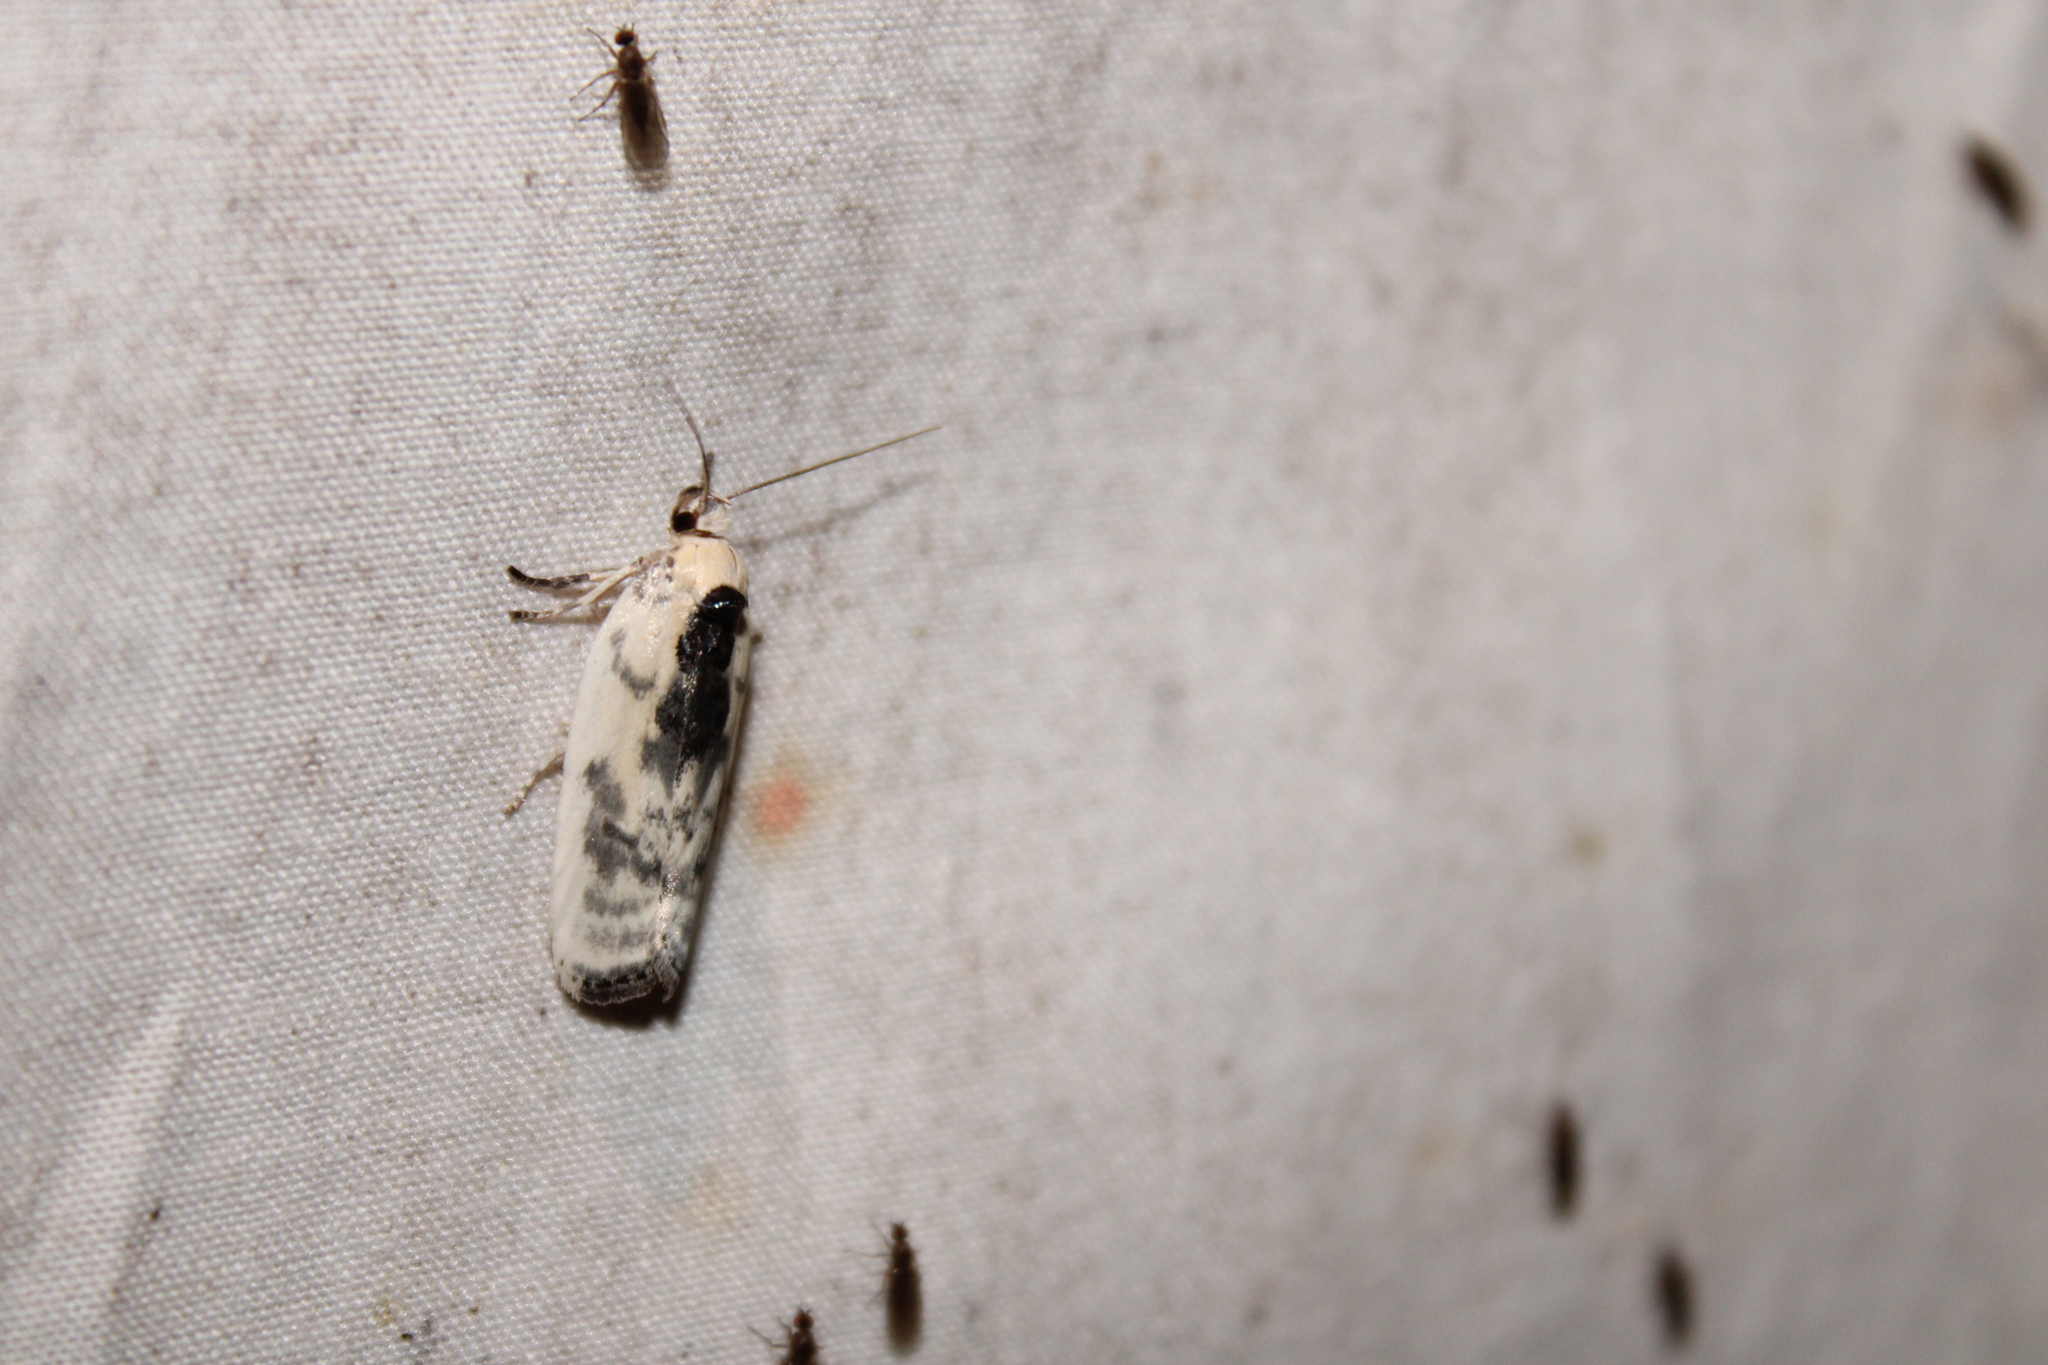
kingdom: Animalia
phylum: Arthropoda
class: Insecta
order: Lepidoptera
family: Depressariidae
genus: Antaeotricha
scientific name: Antaeotricha schlaegeri
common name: Schlaeger's fruitworm moth
